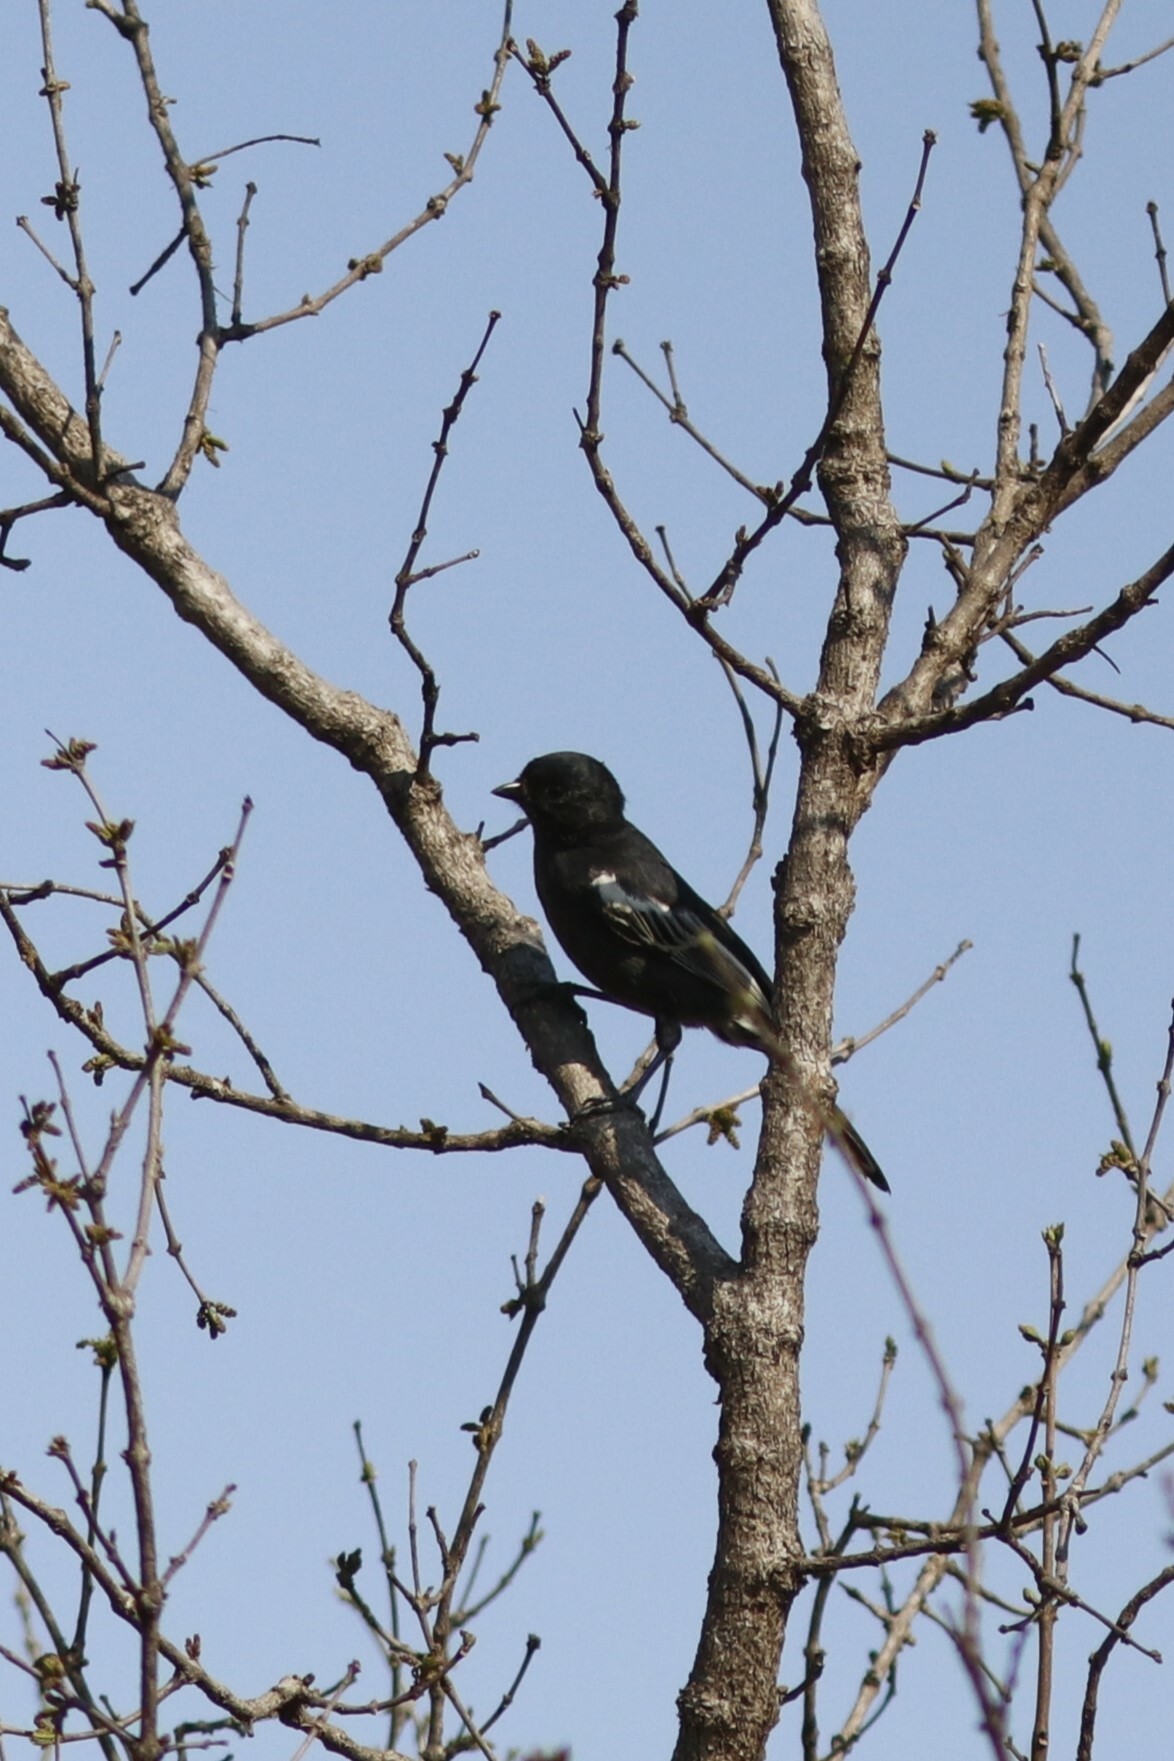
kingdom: Animalia
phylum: Chordata
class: Aves
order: Passeriformes
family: Paridae
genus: Parus
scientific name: Parus niger
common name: Southern black tit
